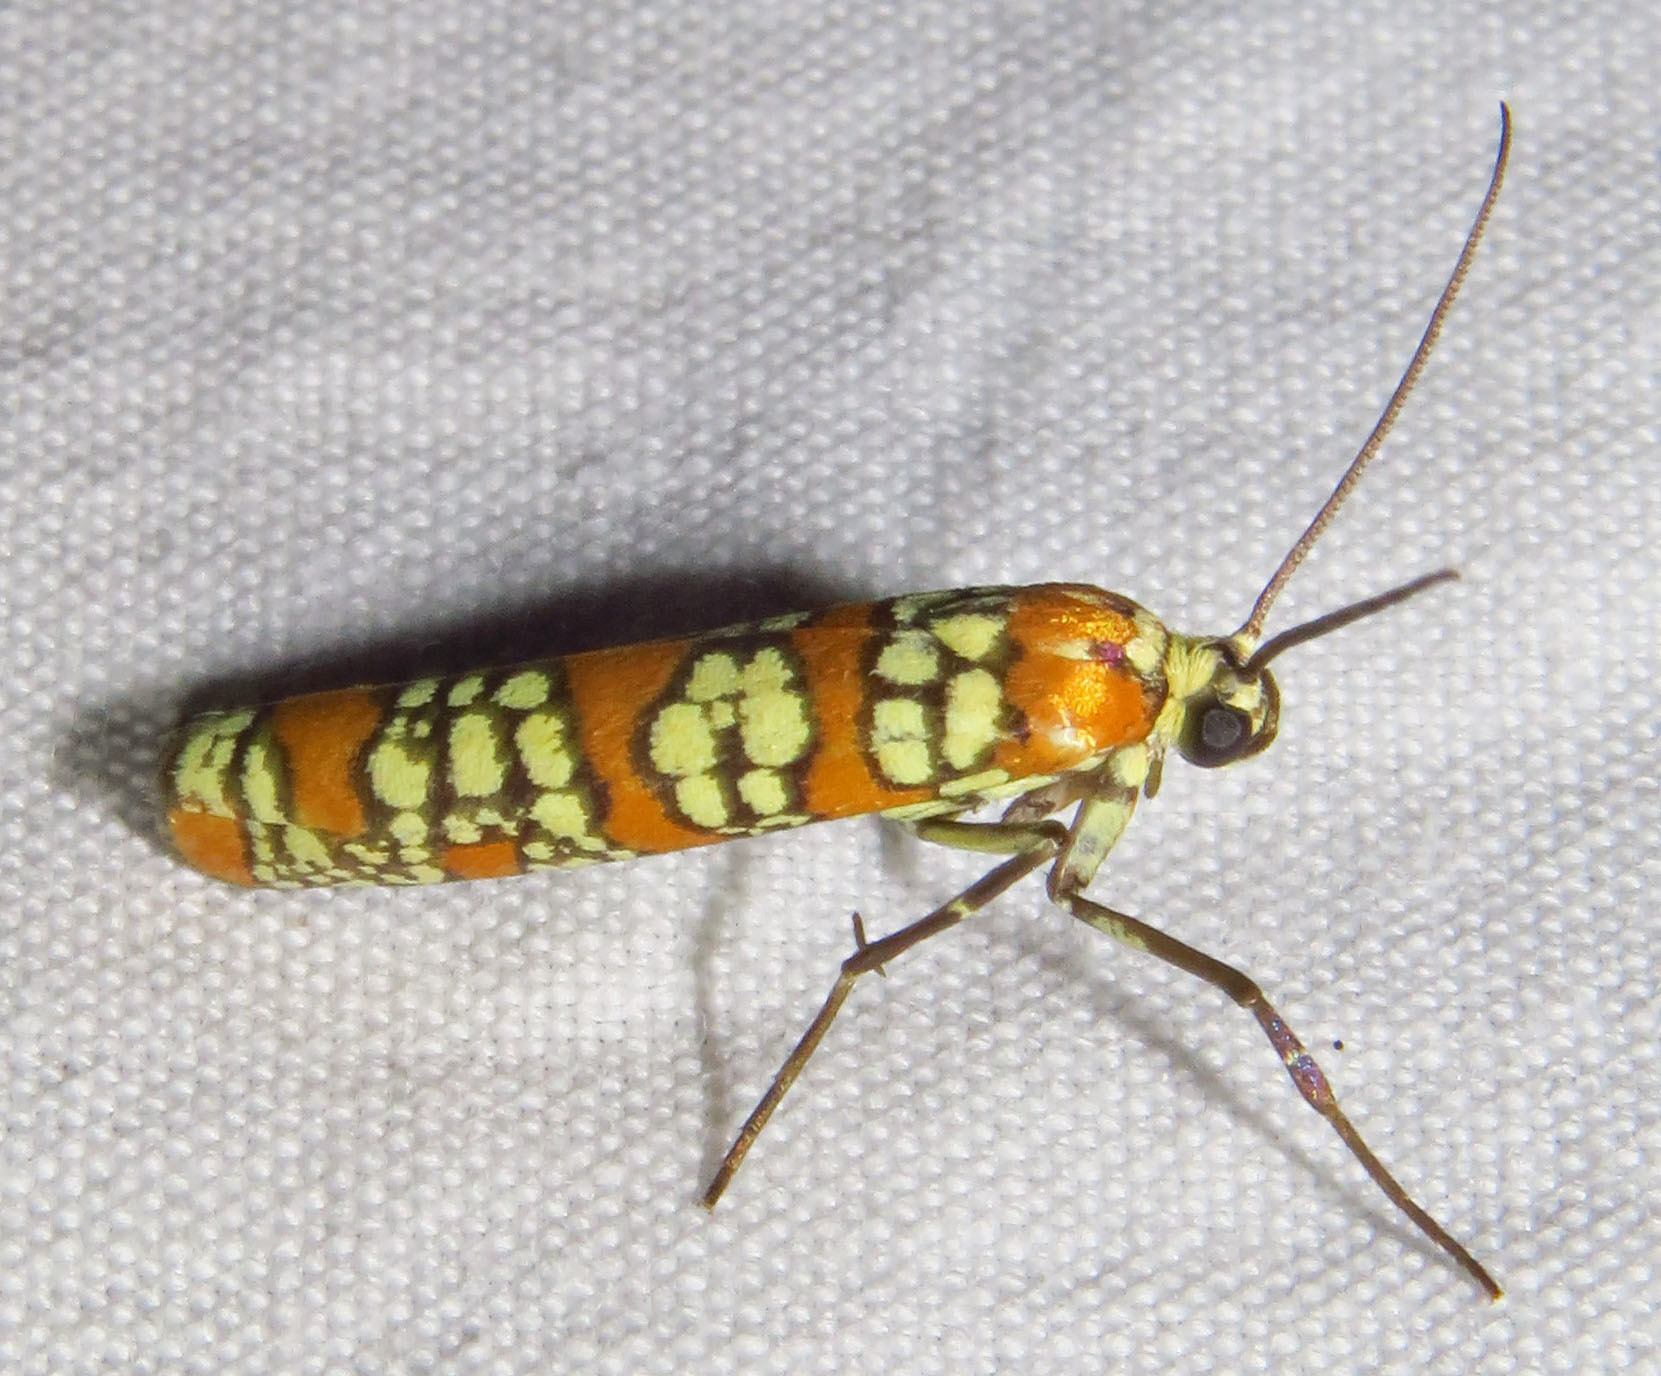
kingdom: Animalia
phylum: Arthropoda
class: Insecta
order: Lepidoptera
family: Attevidae
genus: Atteva
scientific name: Atteva punctella
